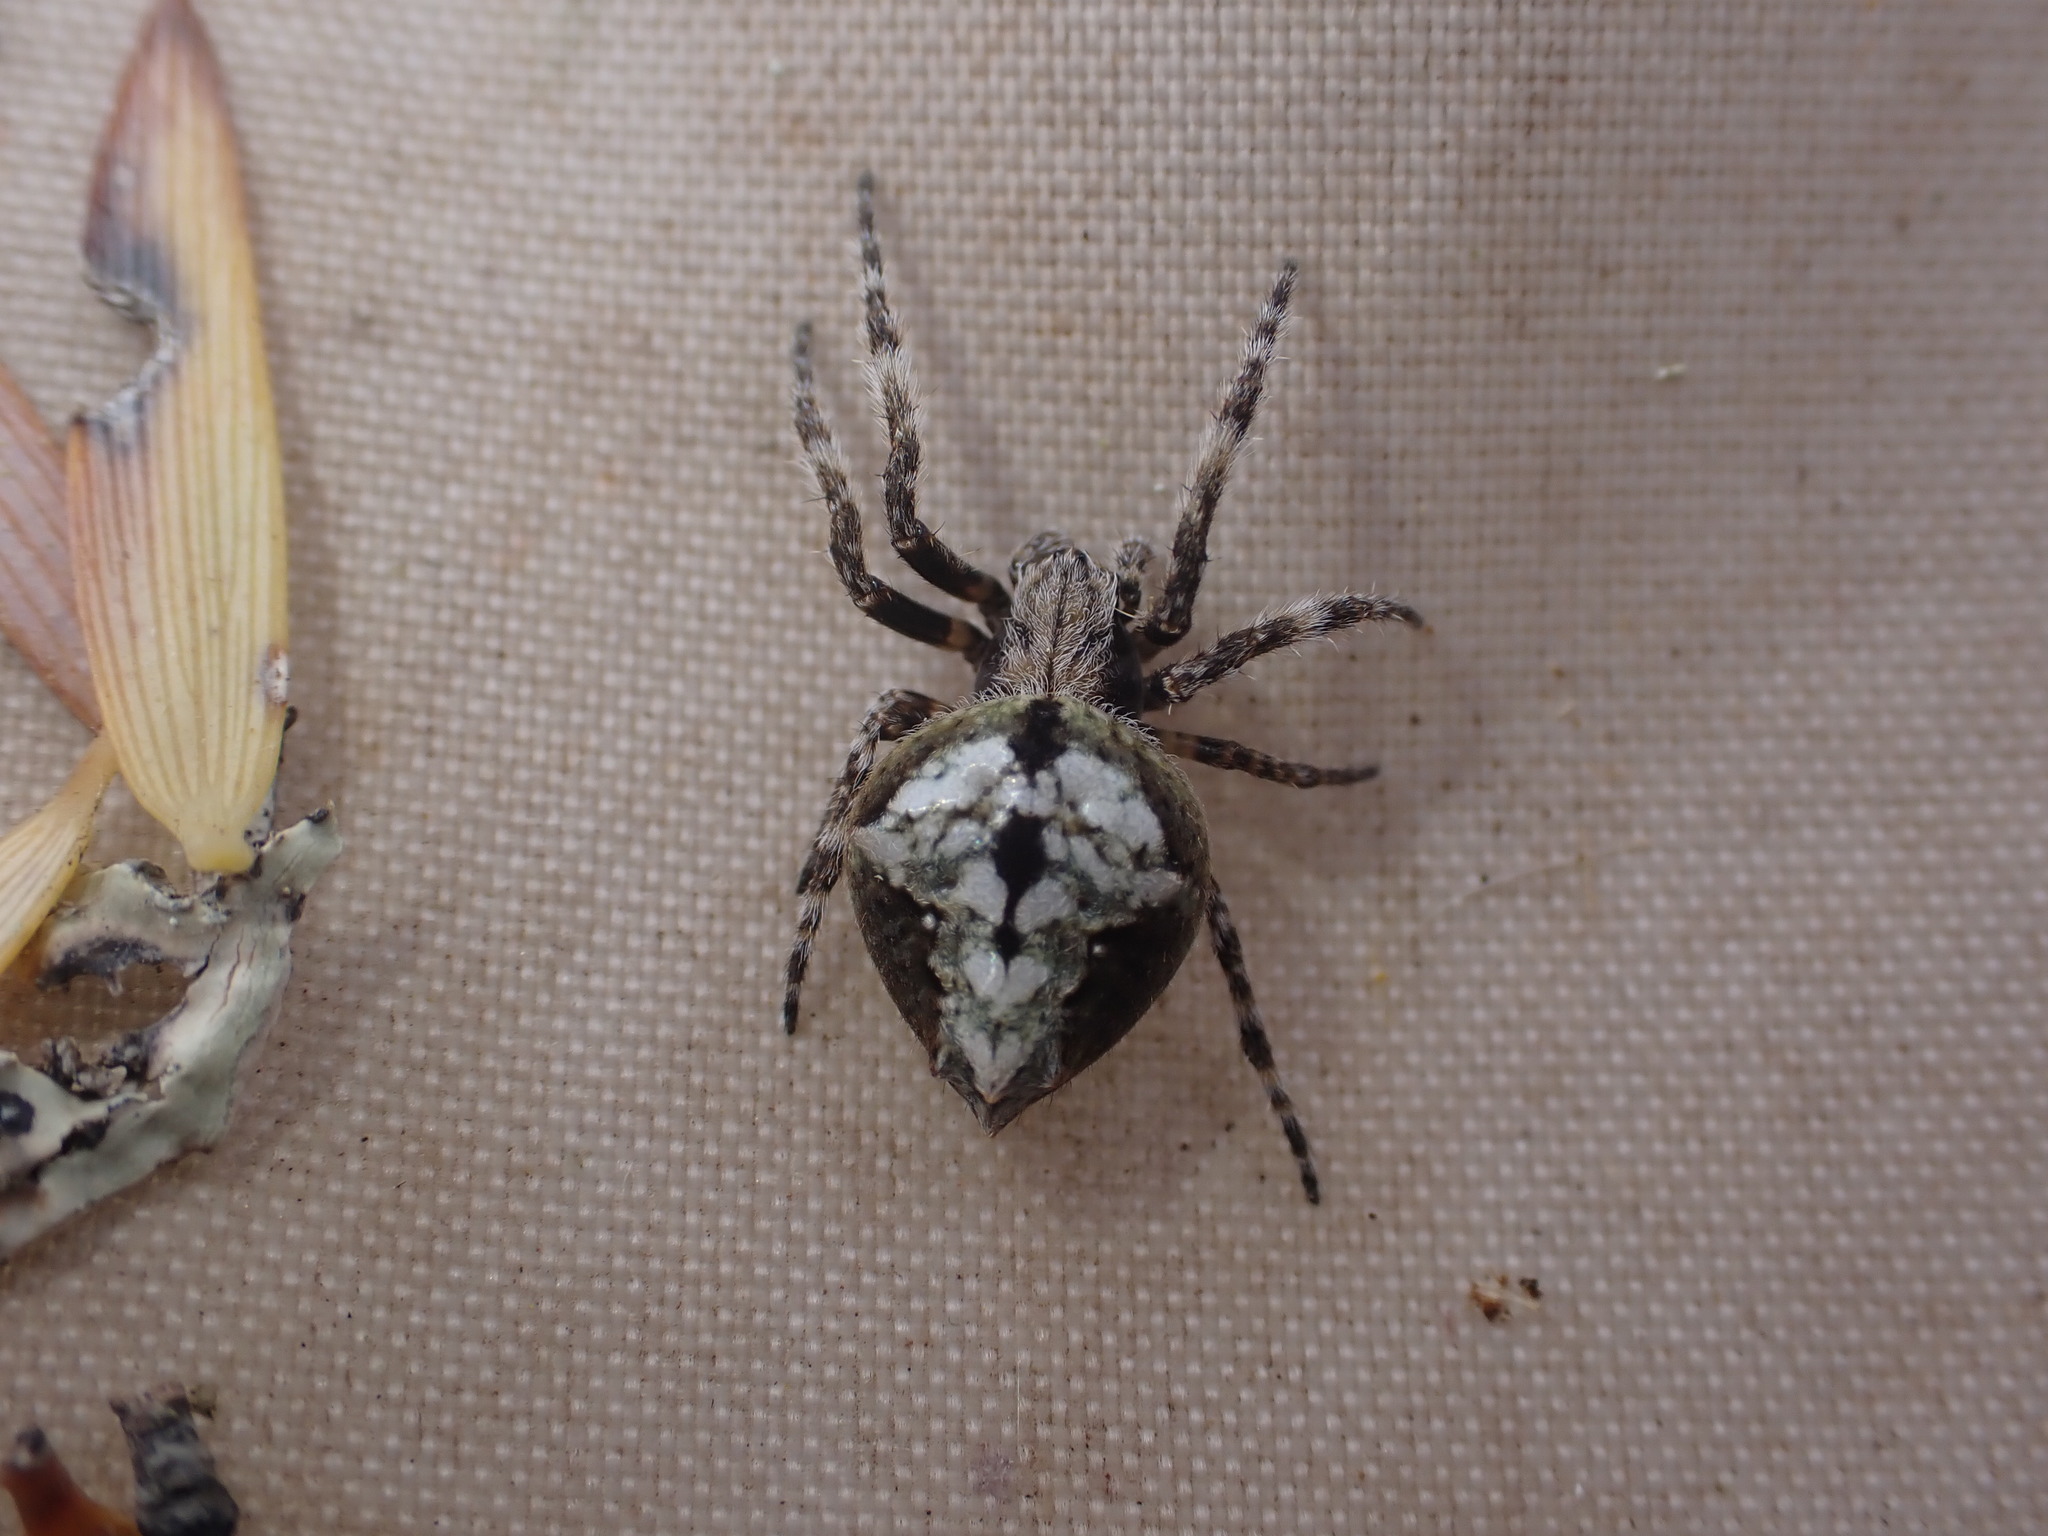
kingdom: Animalia
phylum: Arthropoda
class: Arachnida
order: Araneae
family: Araneidae
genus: Eriophora
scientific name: Eriophora pustulosa
